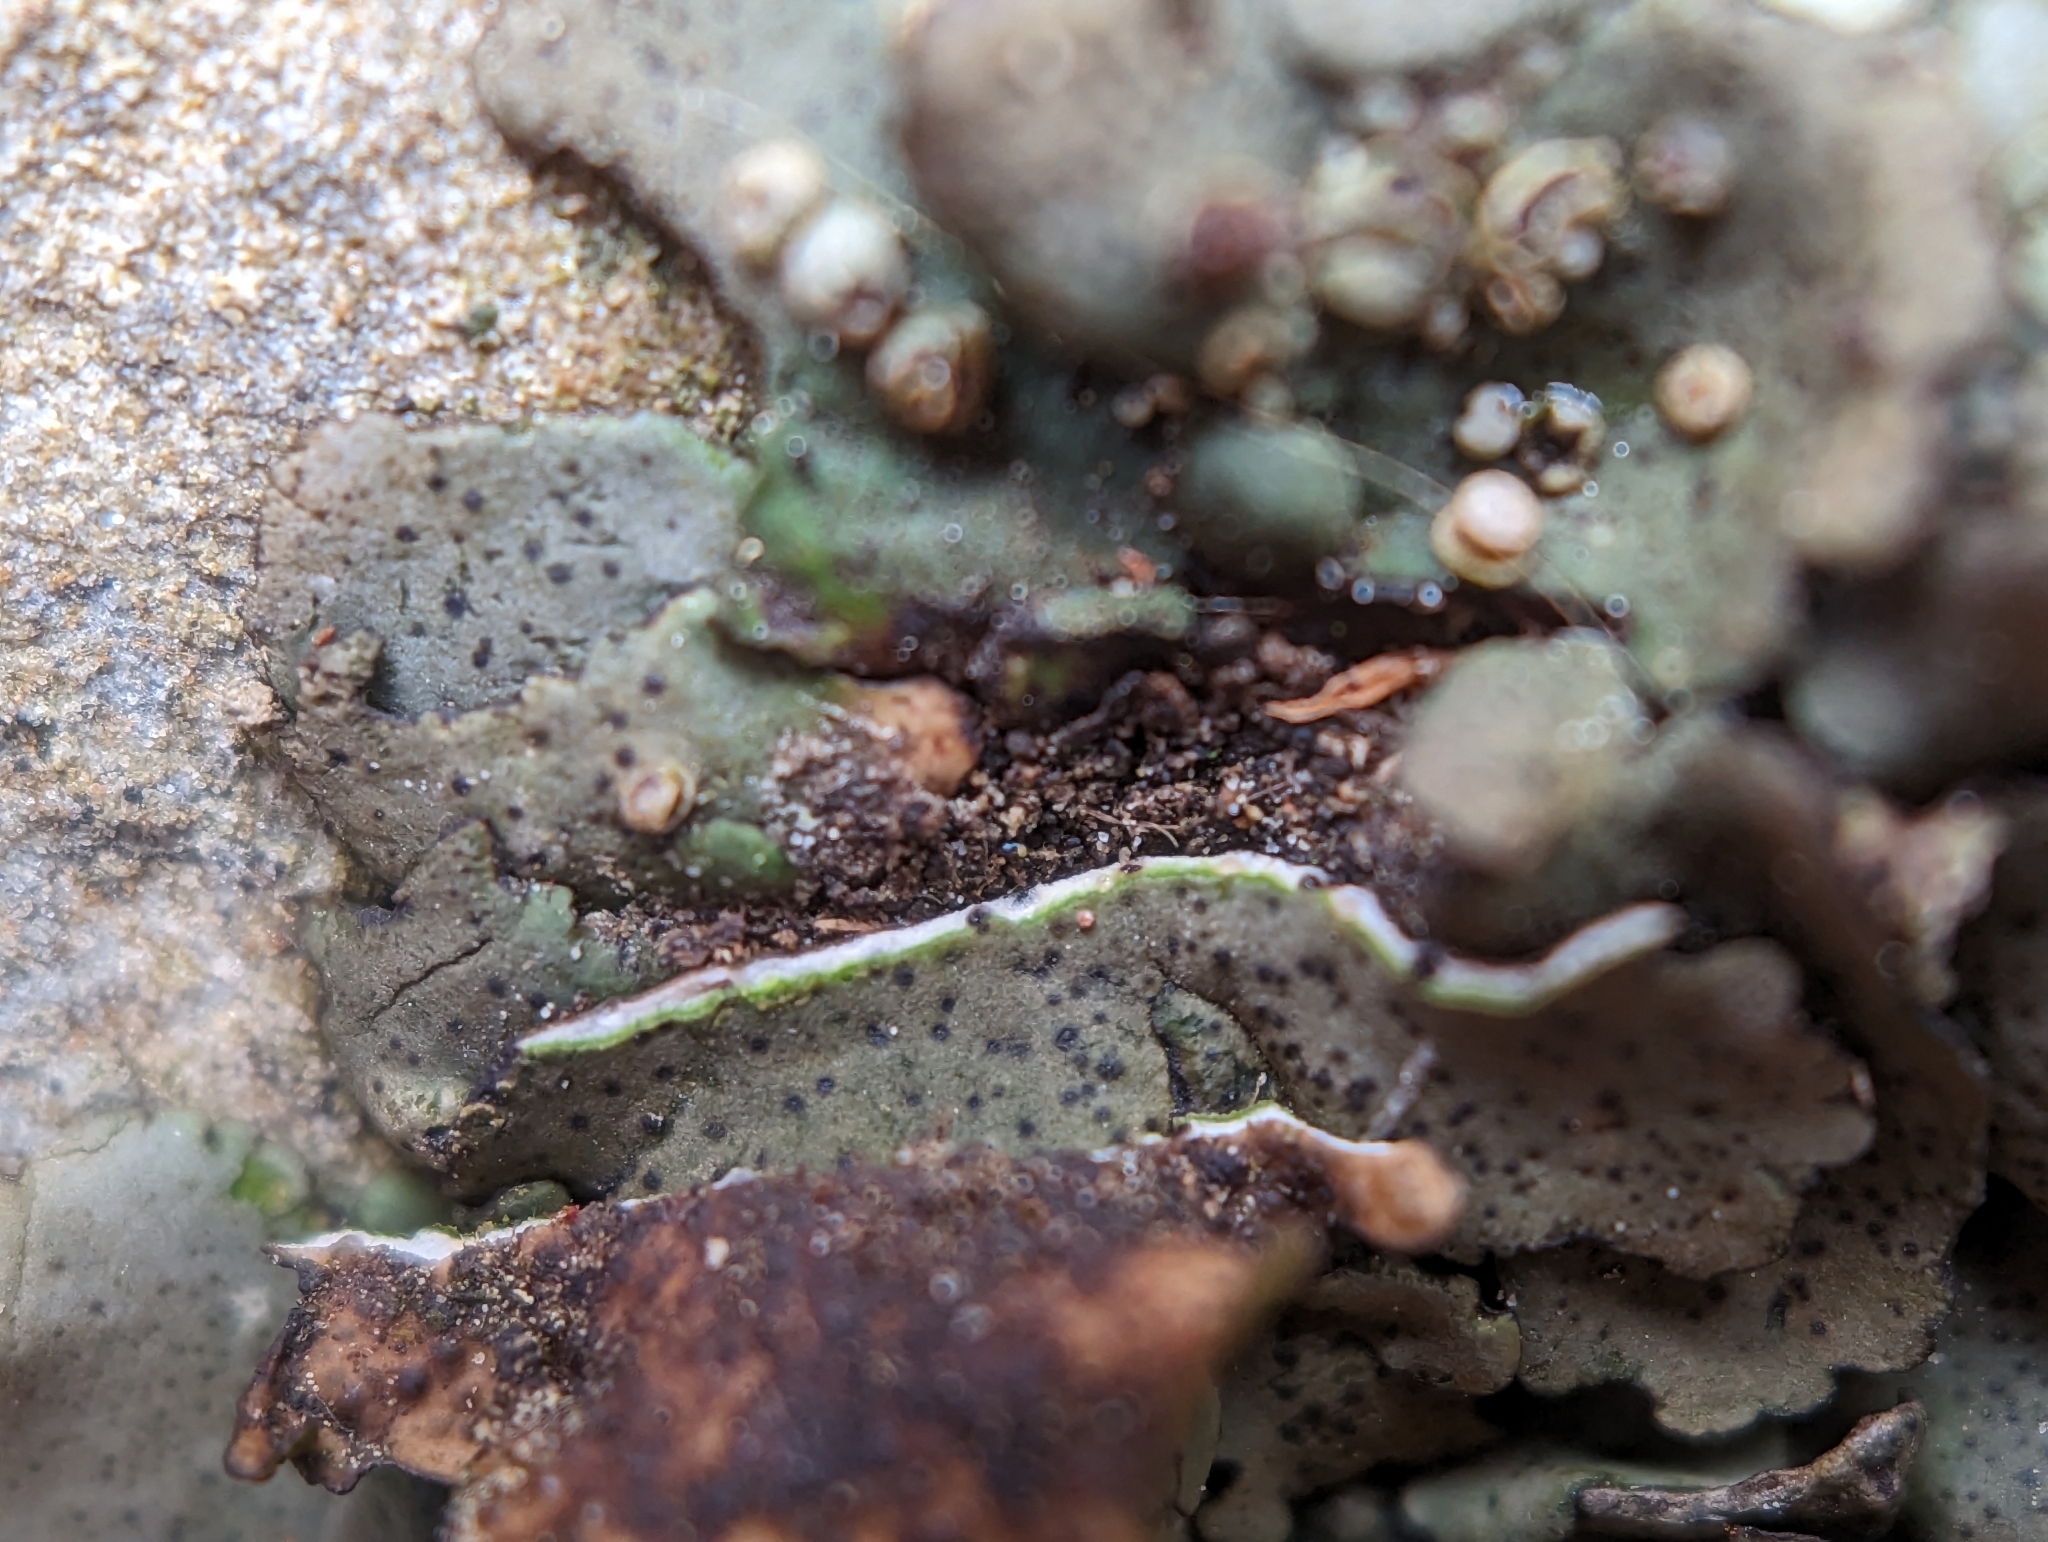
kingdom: Fungi
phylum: Ascomycota
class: Eurotiomycetes
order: Verrucariales
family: Verrucariaceae
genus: Dermatocarpon
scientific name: Dermatocarpon muhlenbergii
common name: Muhlenberg's stippleback lichen
